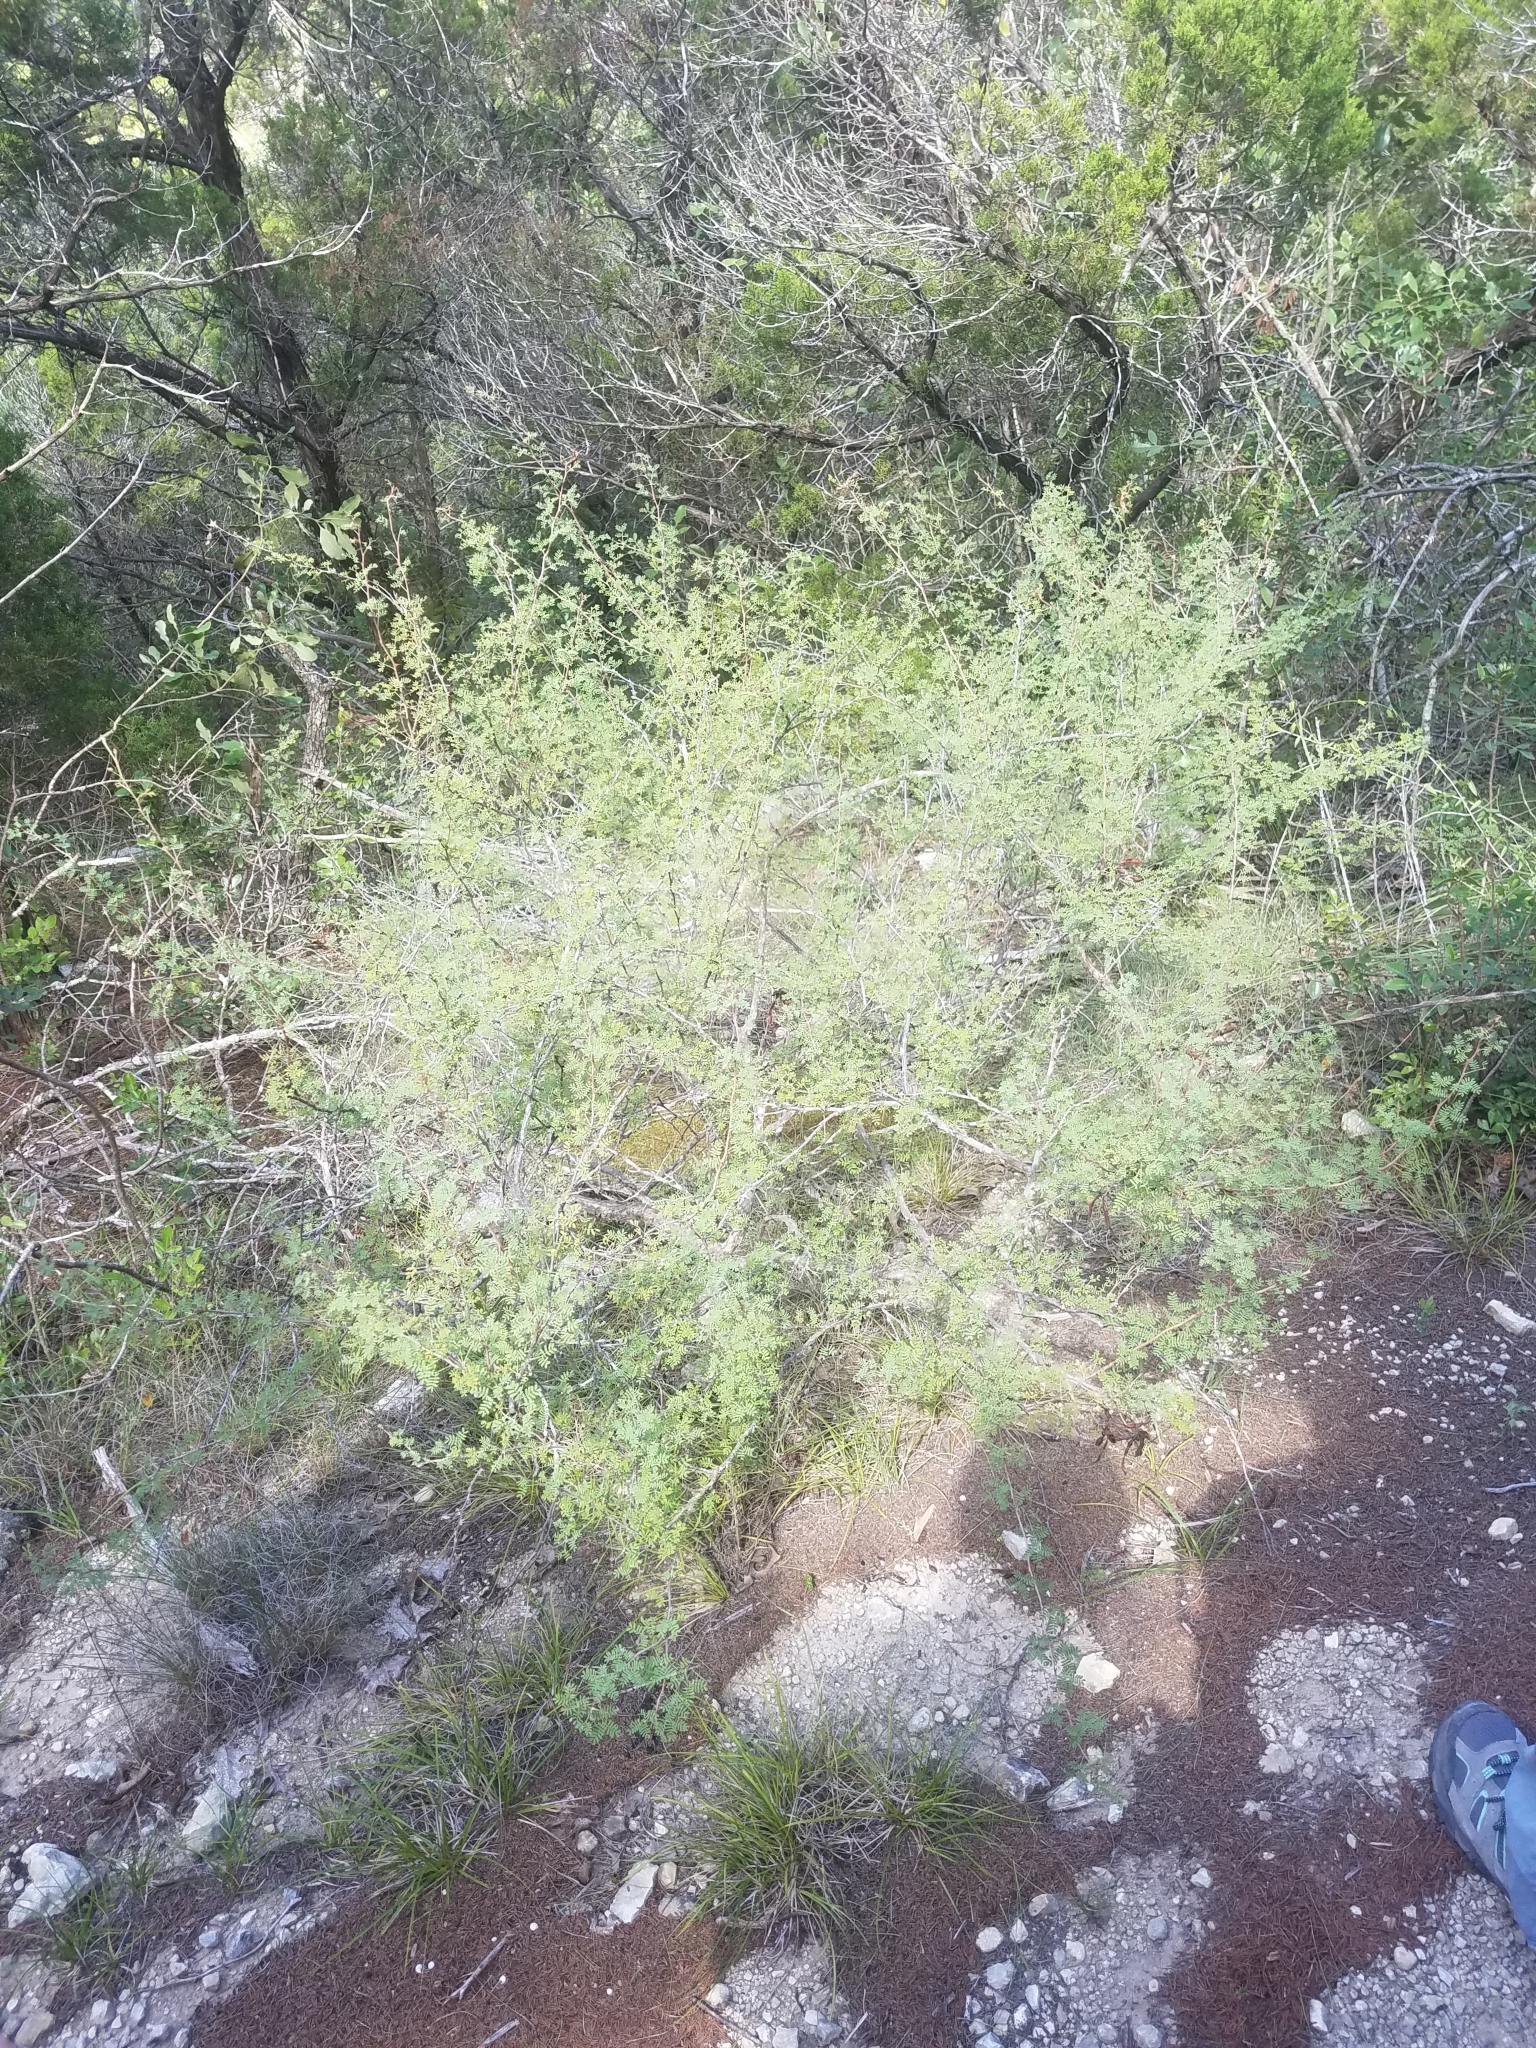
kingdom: Plantae
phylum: Tracheophyta
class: Magnoliopsida
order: Fabales
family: Fabaceae
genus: Mimosa
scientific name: Mimosa texana
